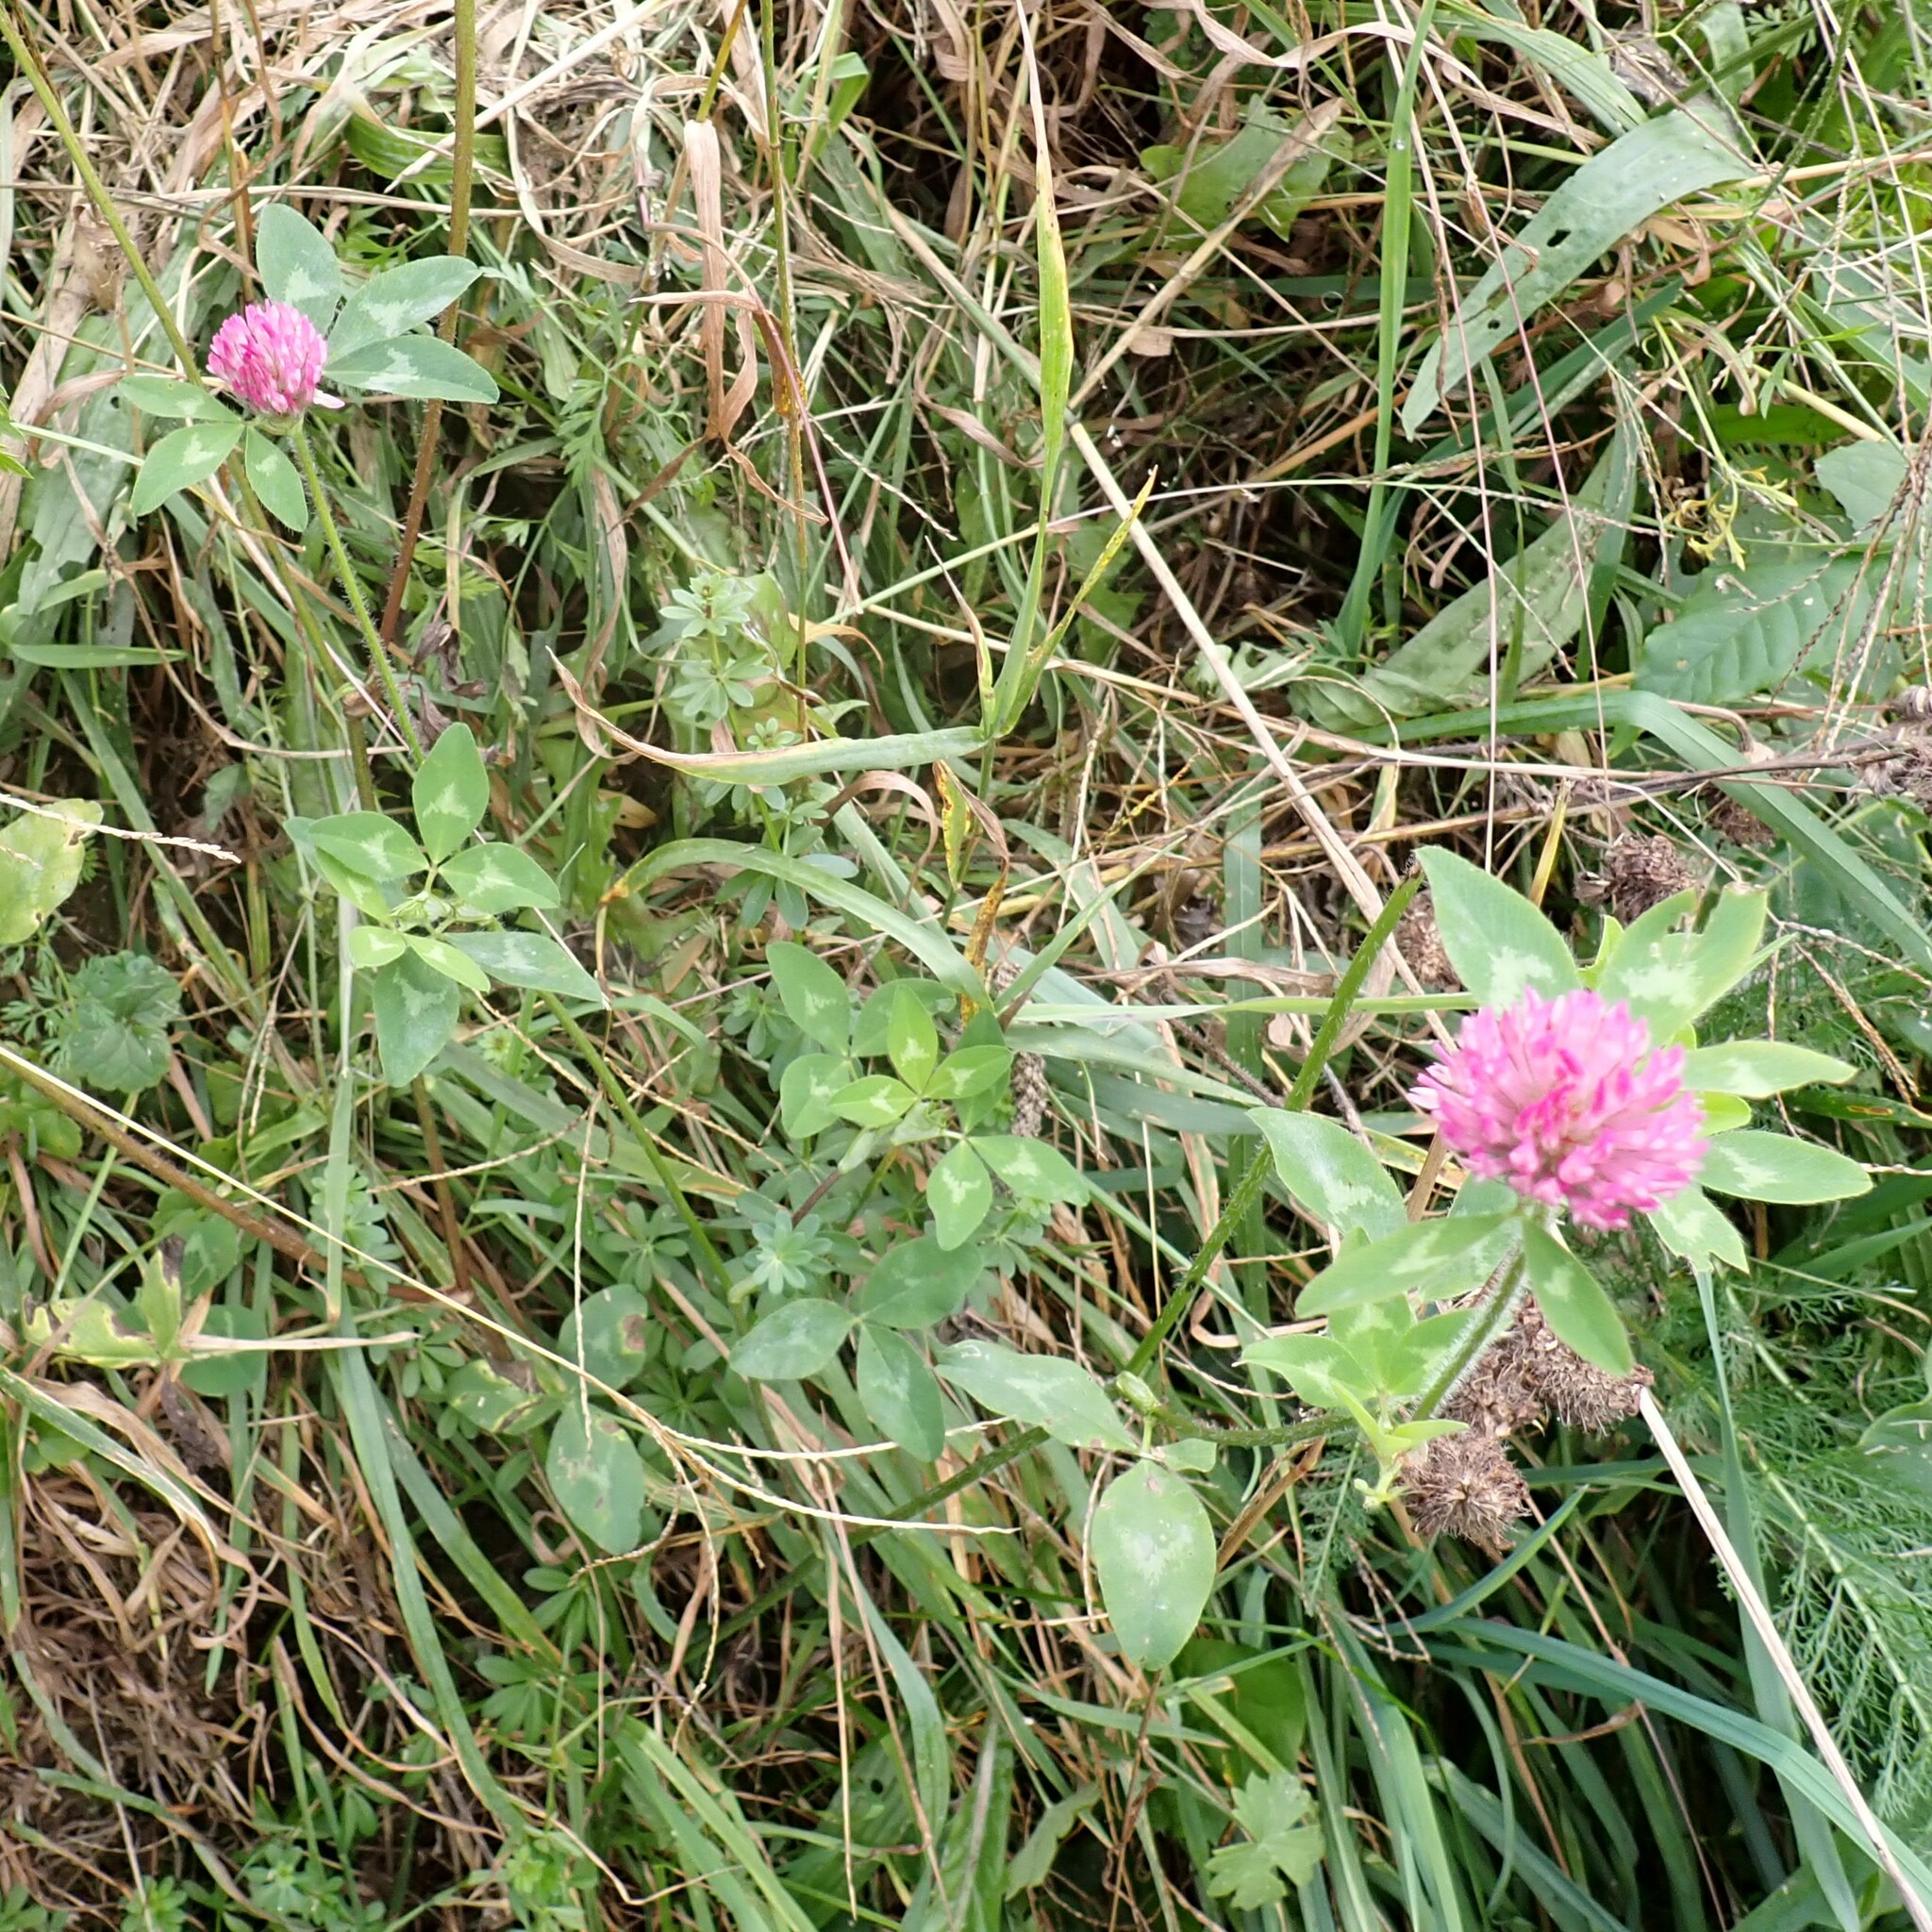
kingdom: Plantae
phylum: Tracheophyta
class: Magnoliopsida
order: Fabales
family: Fabaceae
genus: Trifolium
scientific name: Trifolium pratense
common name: Red clover
